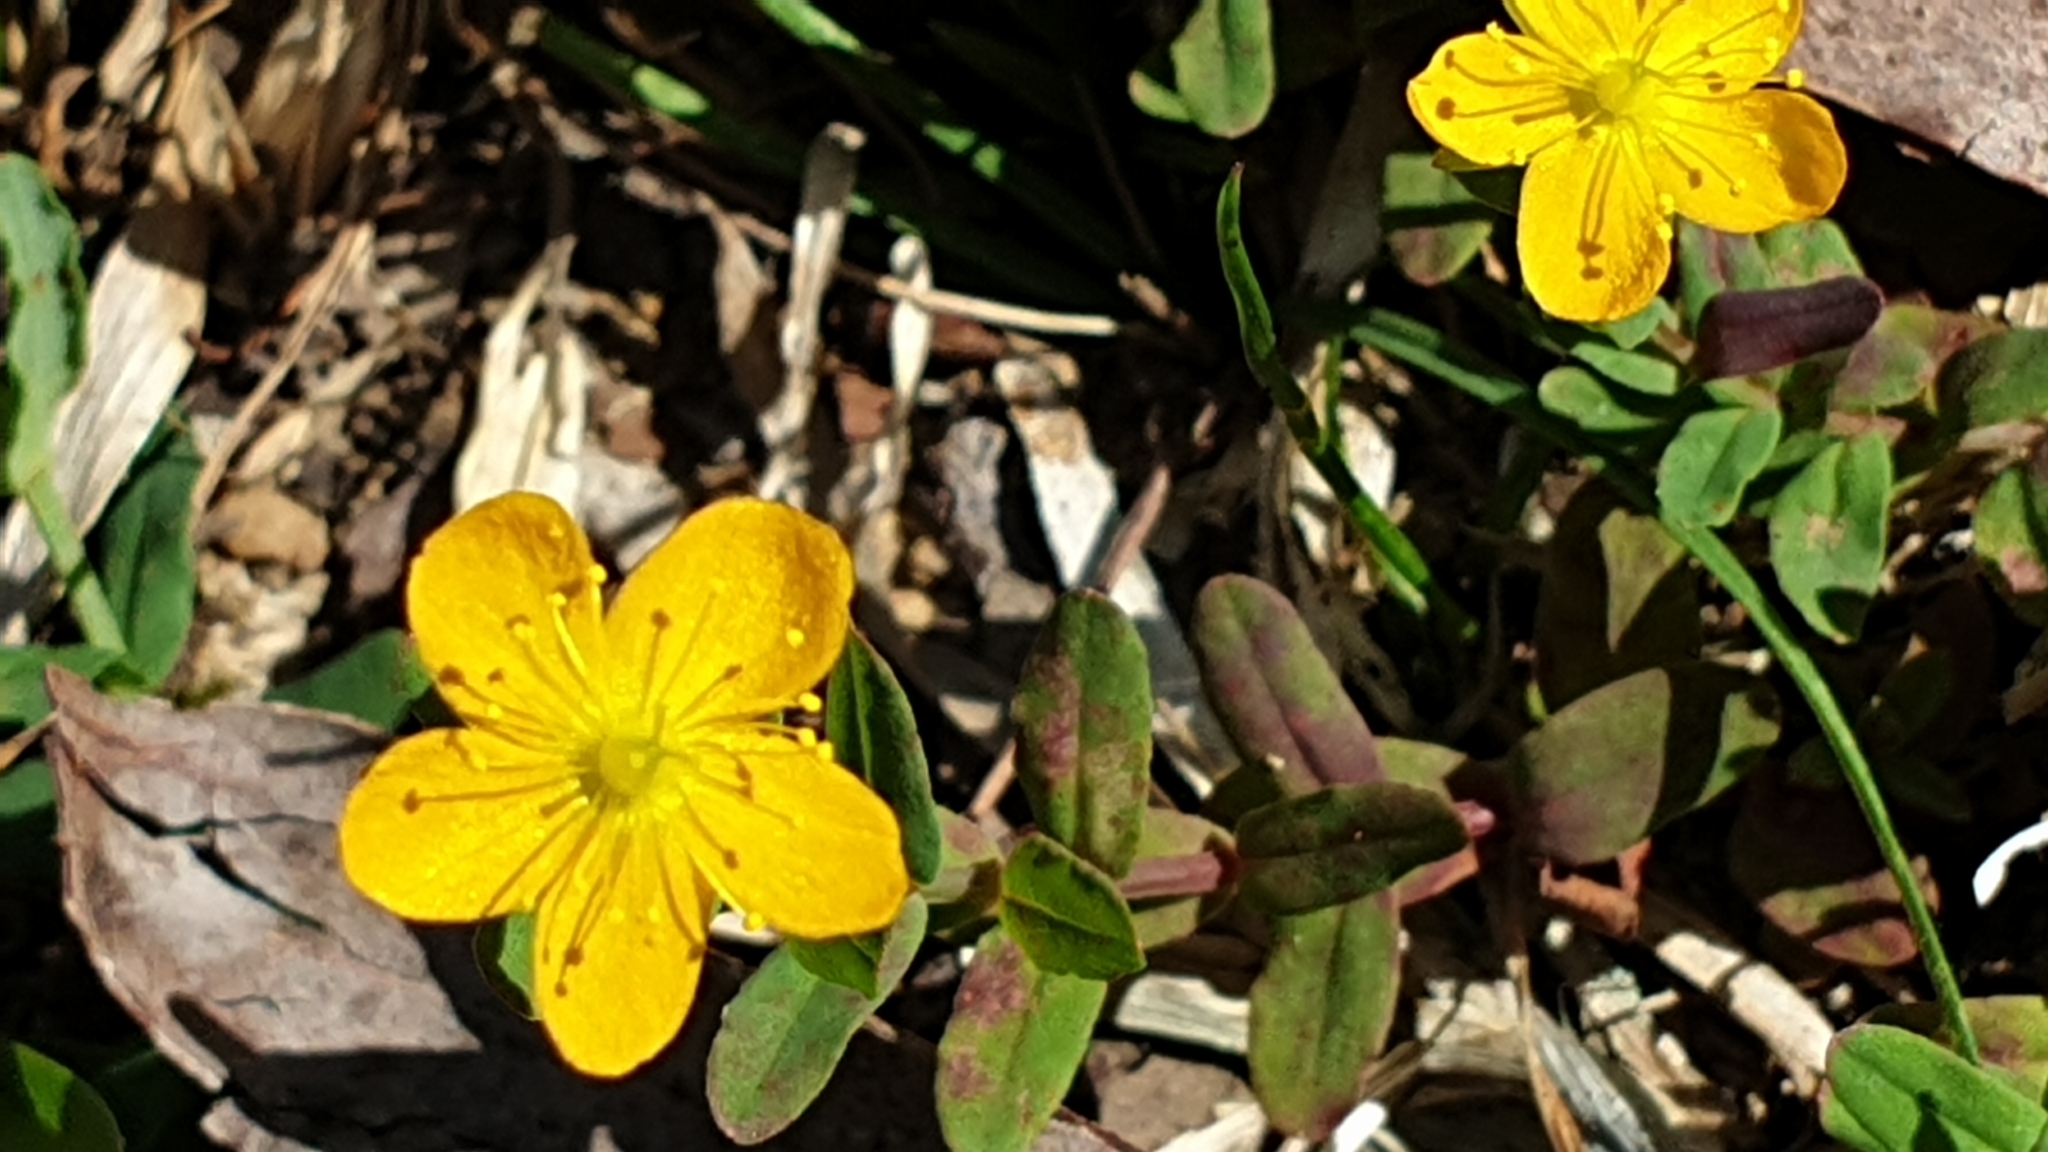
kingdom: Plantae
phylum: Tracheophyta
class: Magnoliopsida
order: Malpighiales
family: Hypericaceae
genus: Hypericum
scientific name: Hypericum gramineum
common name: Grassy st. johnswort
